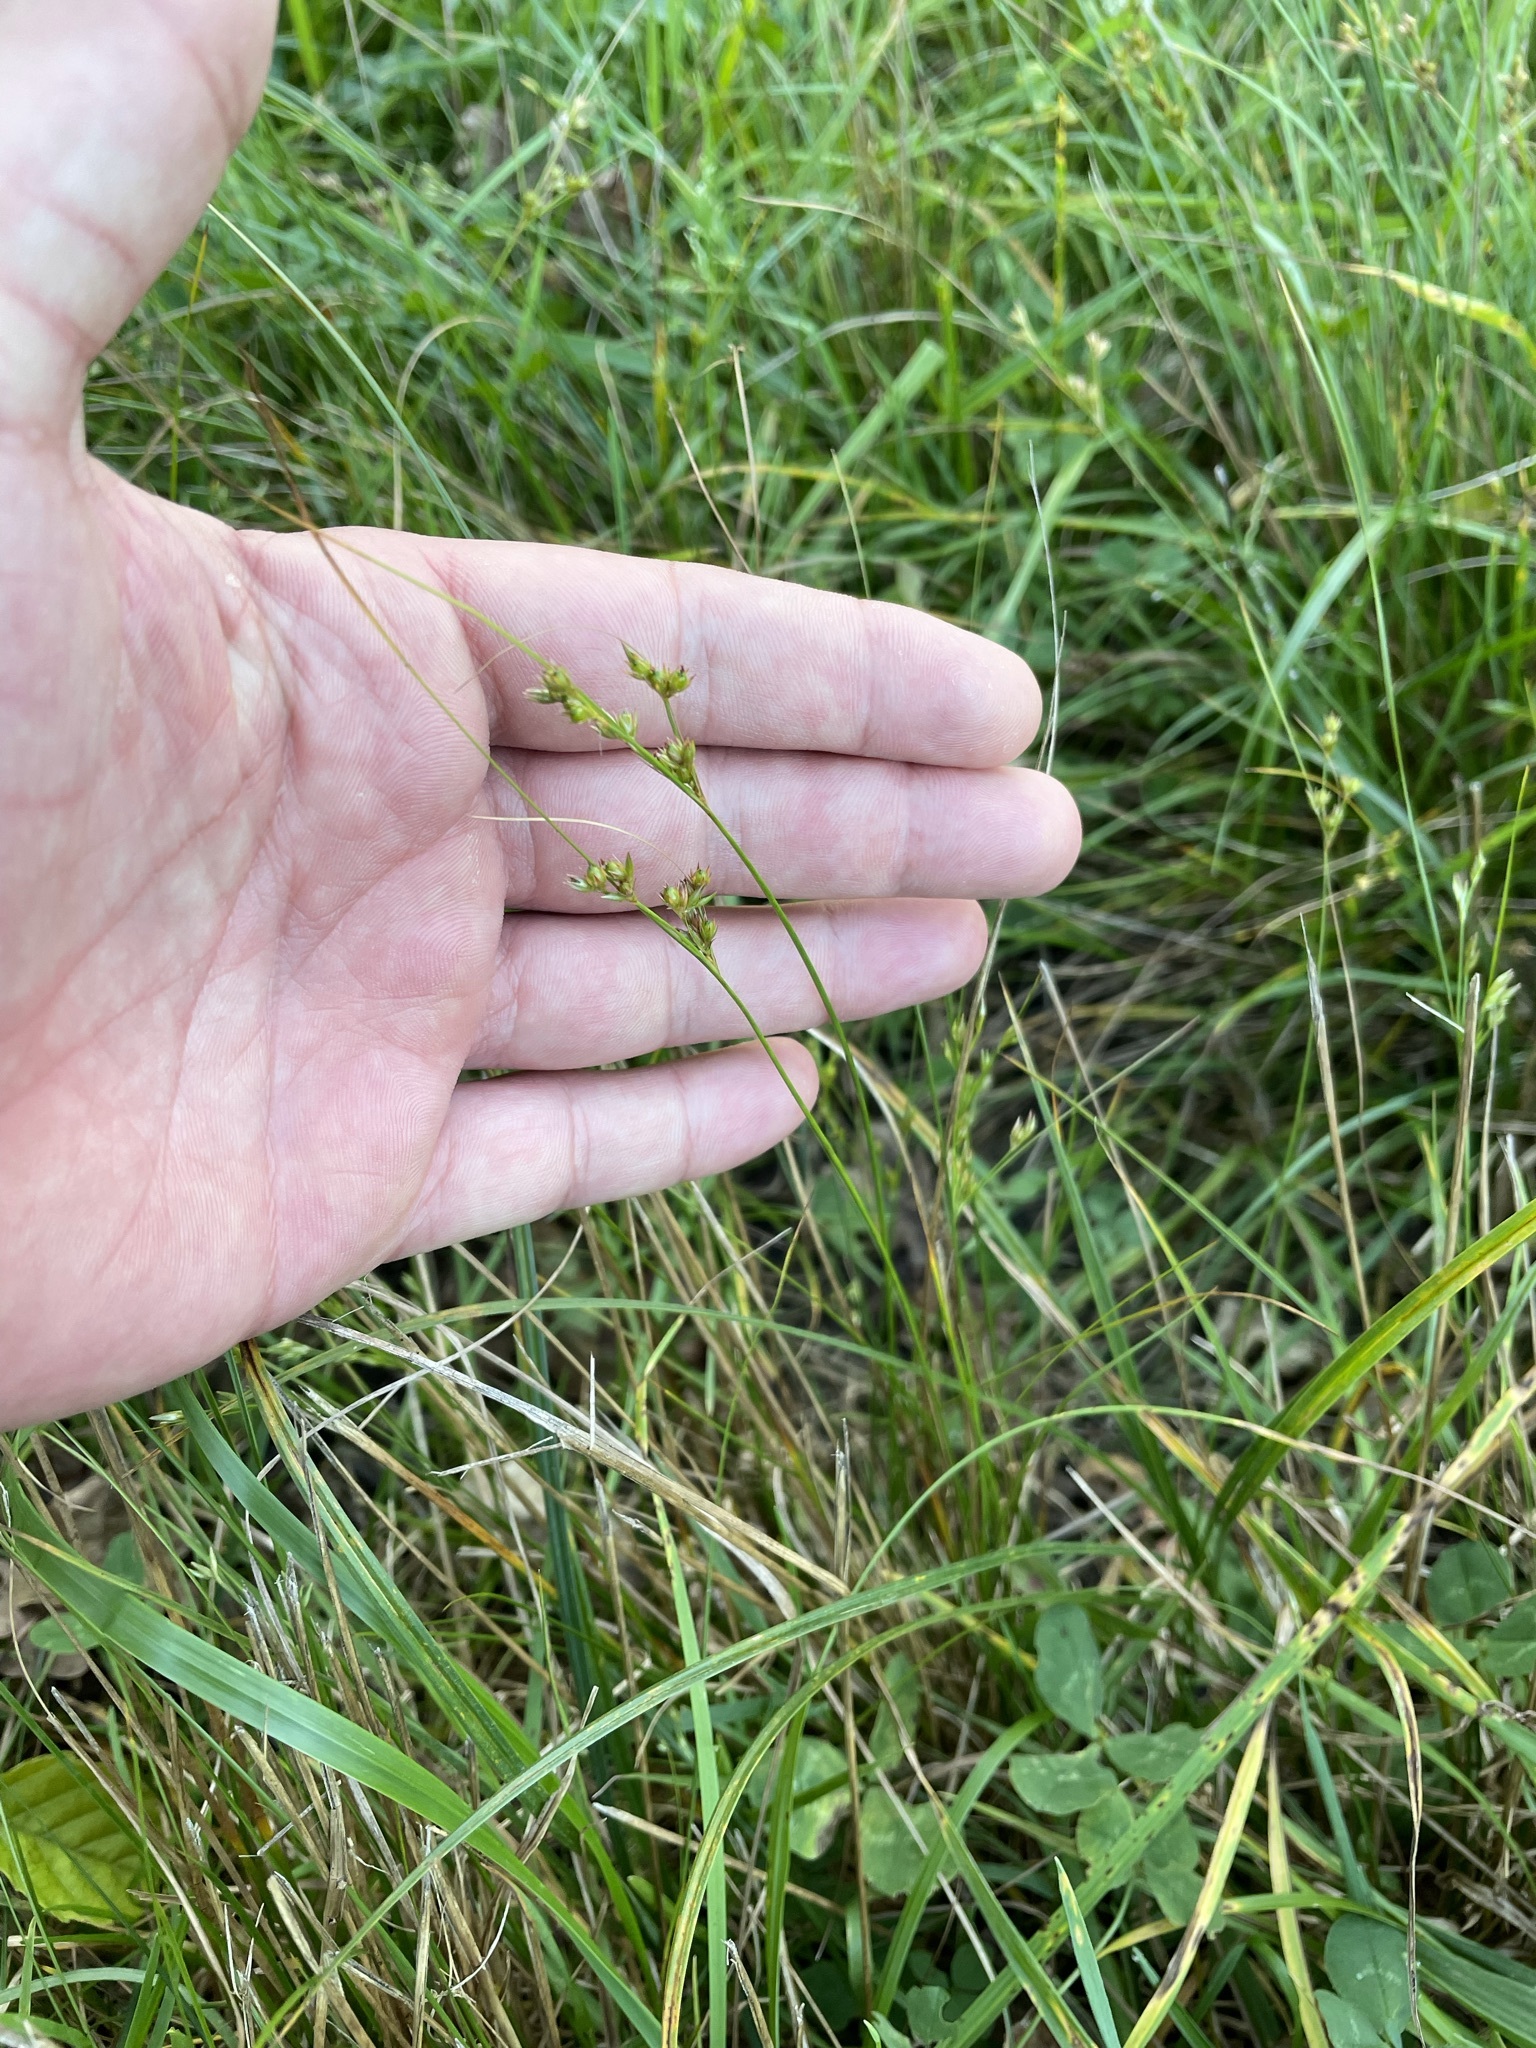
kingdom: Plantae
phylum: Tracheophyta
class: Liliopsida
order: Poales
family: Juncaceae
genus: Juncus
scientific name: Juncus tenuis
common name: Slender rush
